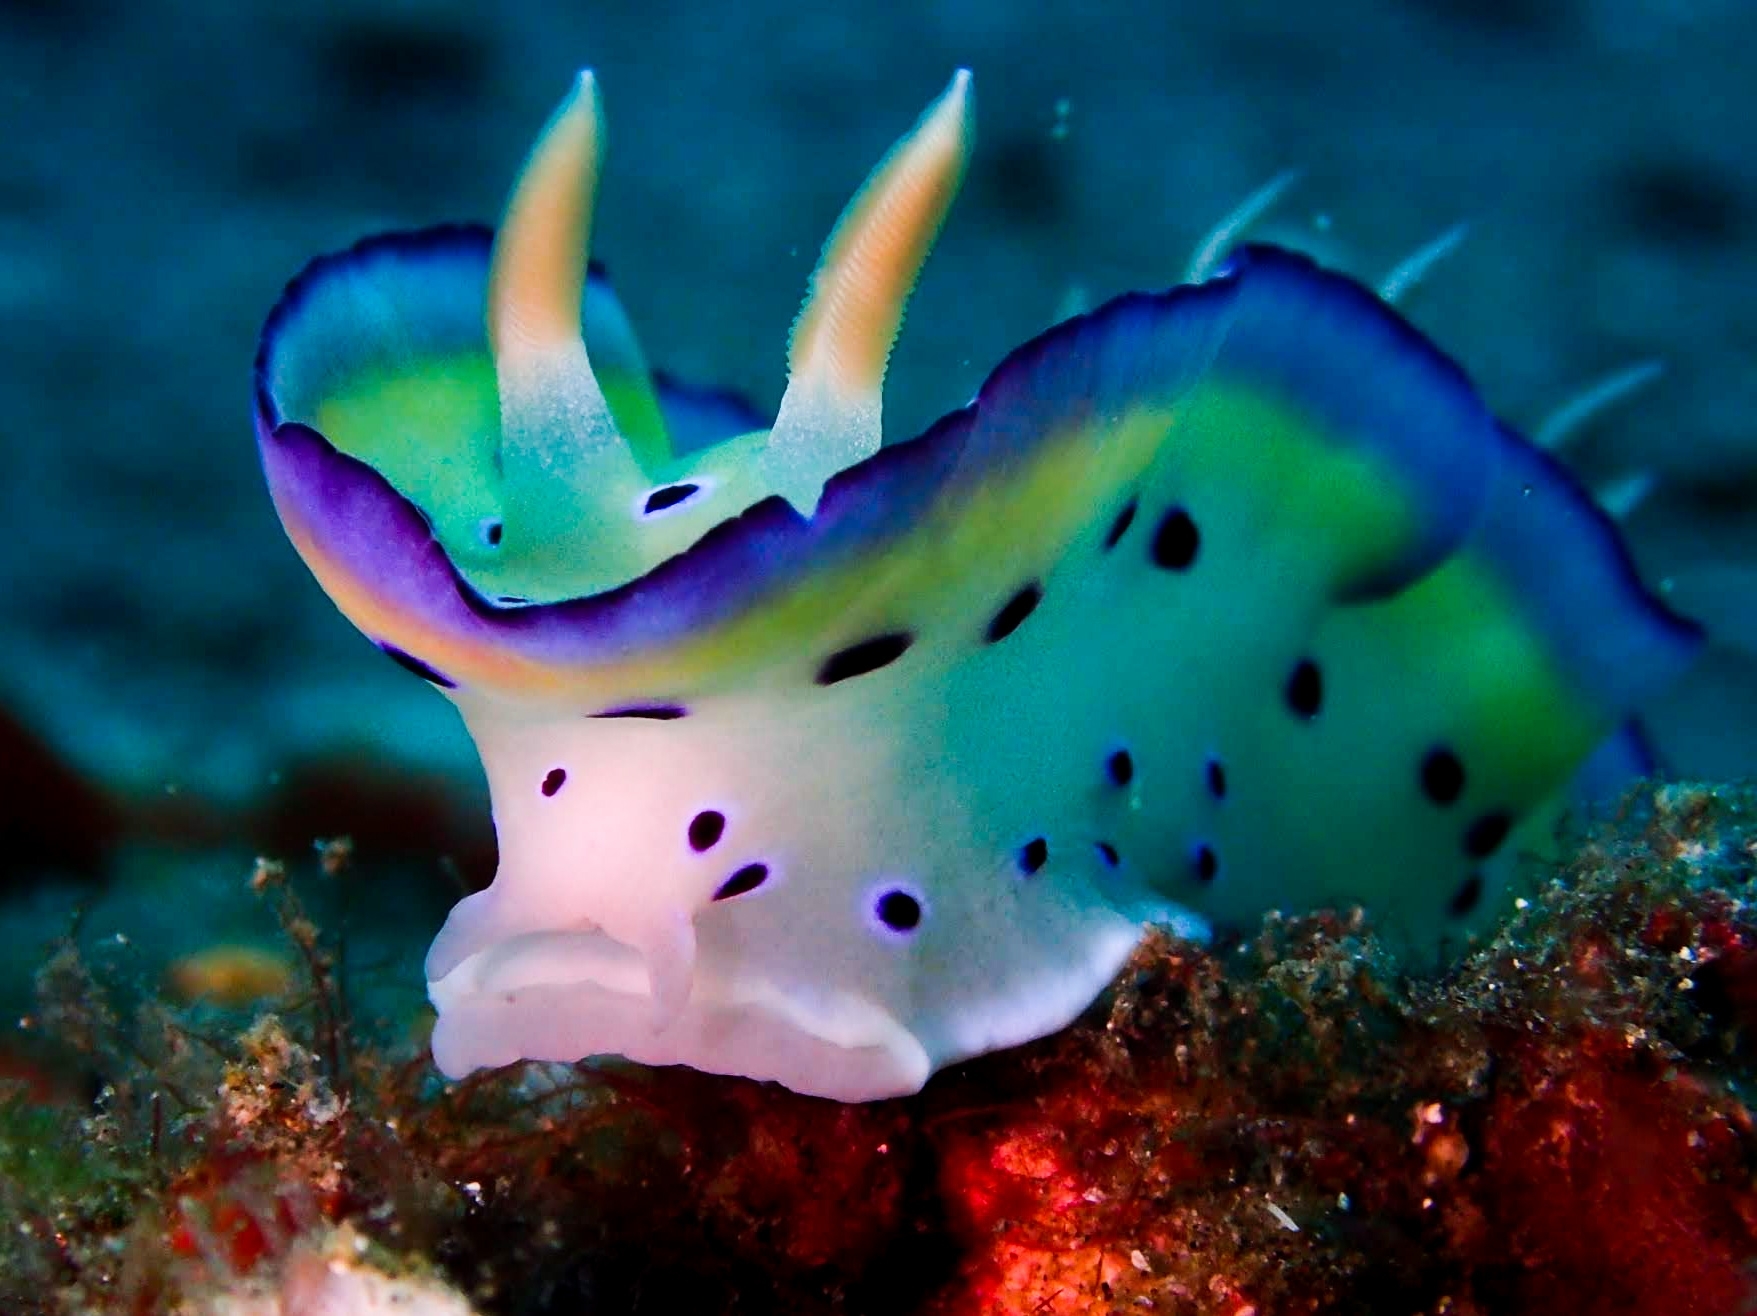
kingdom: Animalia
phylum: Mollusca
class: Gastropoda
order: Nudibranchia
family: Chromodorididae
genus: Goniobranchus
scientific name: Goniobranchus kuniei
